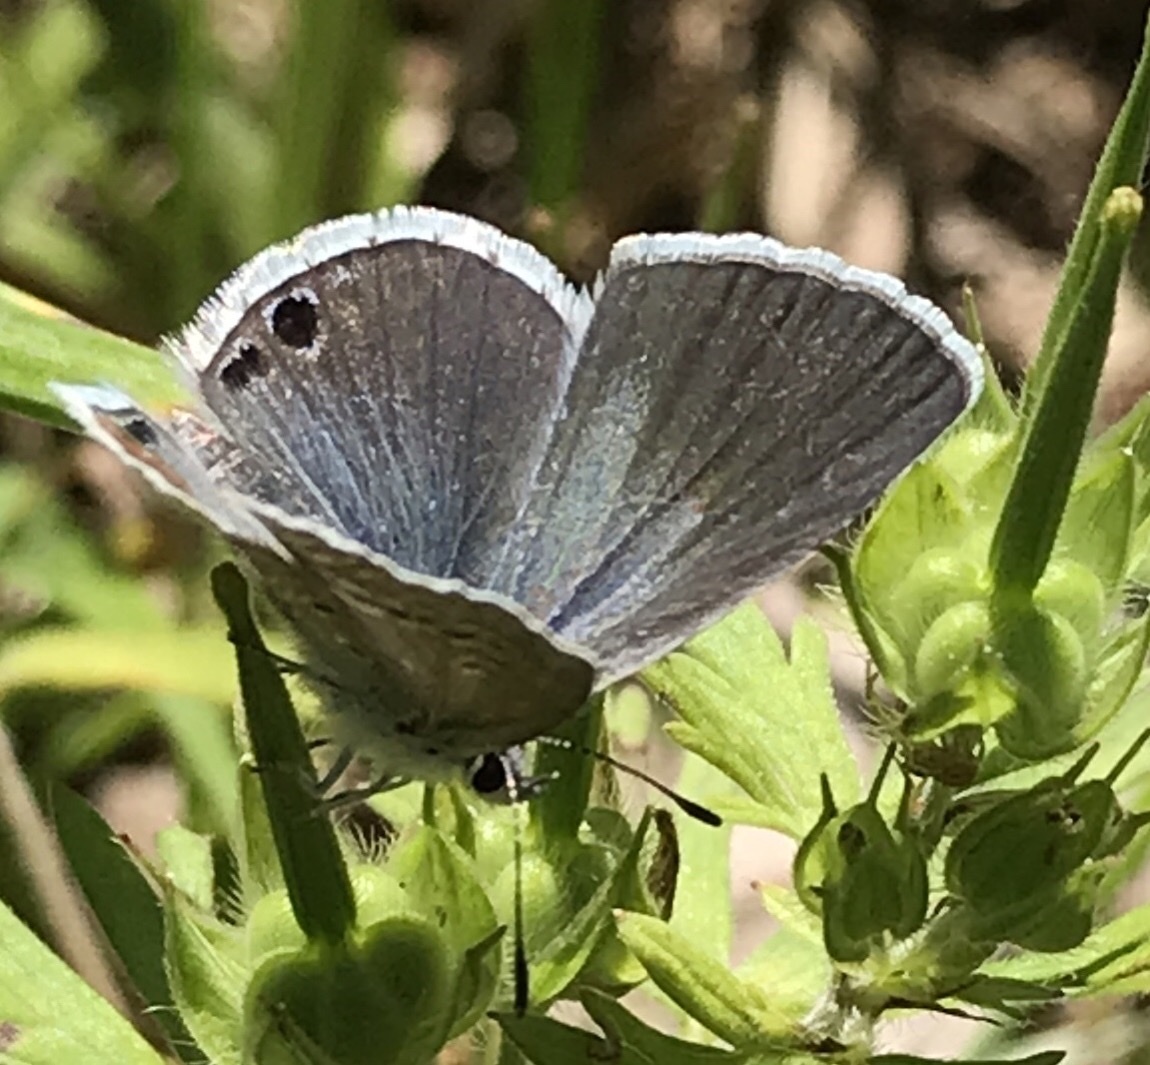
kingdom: Animalia
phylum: Arthropoda
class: Insecta
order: Lepidoptera
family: Lycaenidae
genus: Echinargus
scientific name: Echinargus isola
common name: Reakirt's blue
